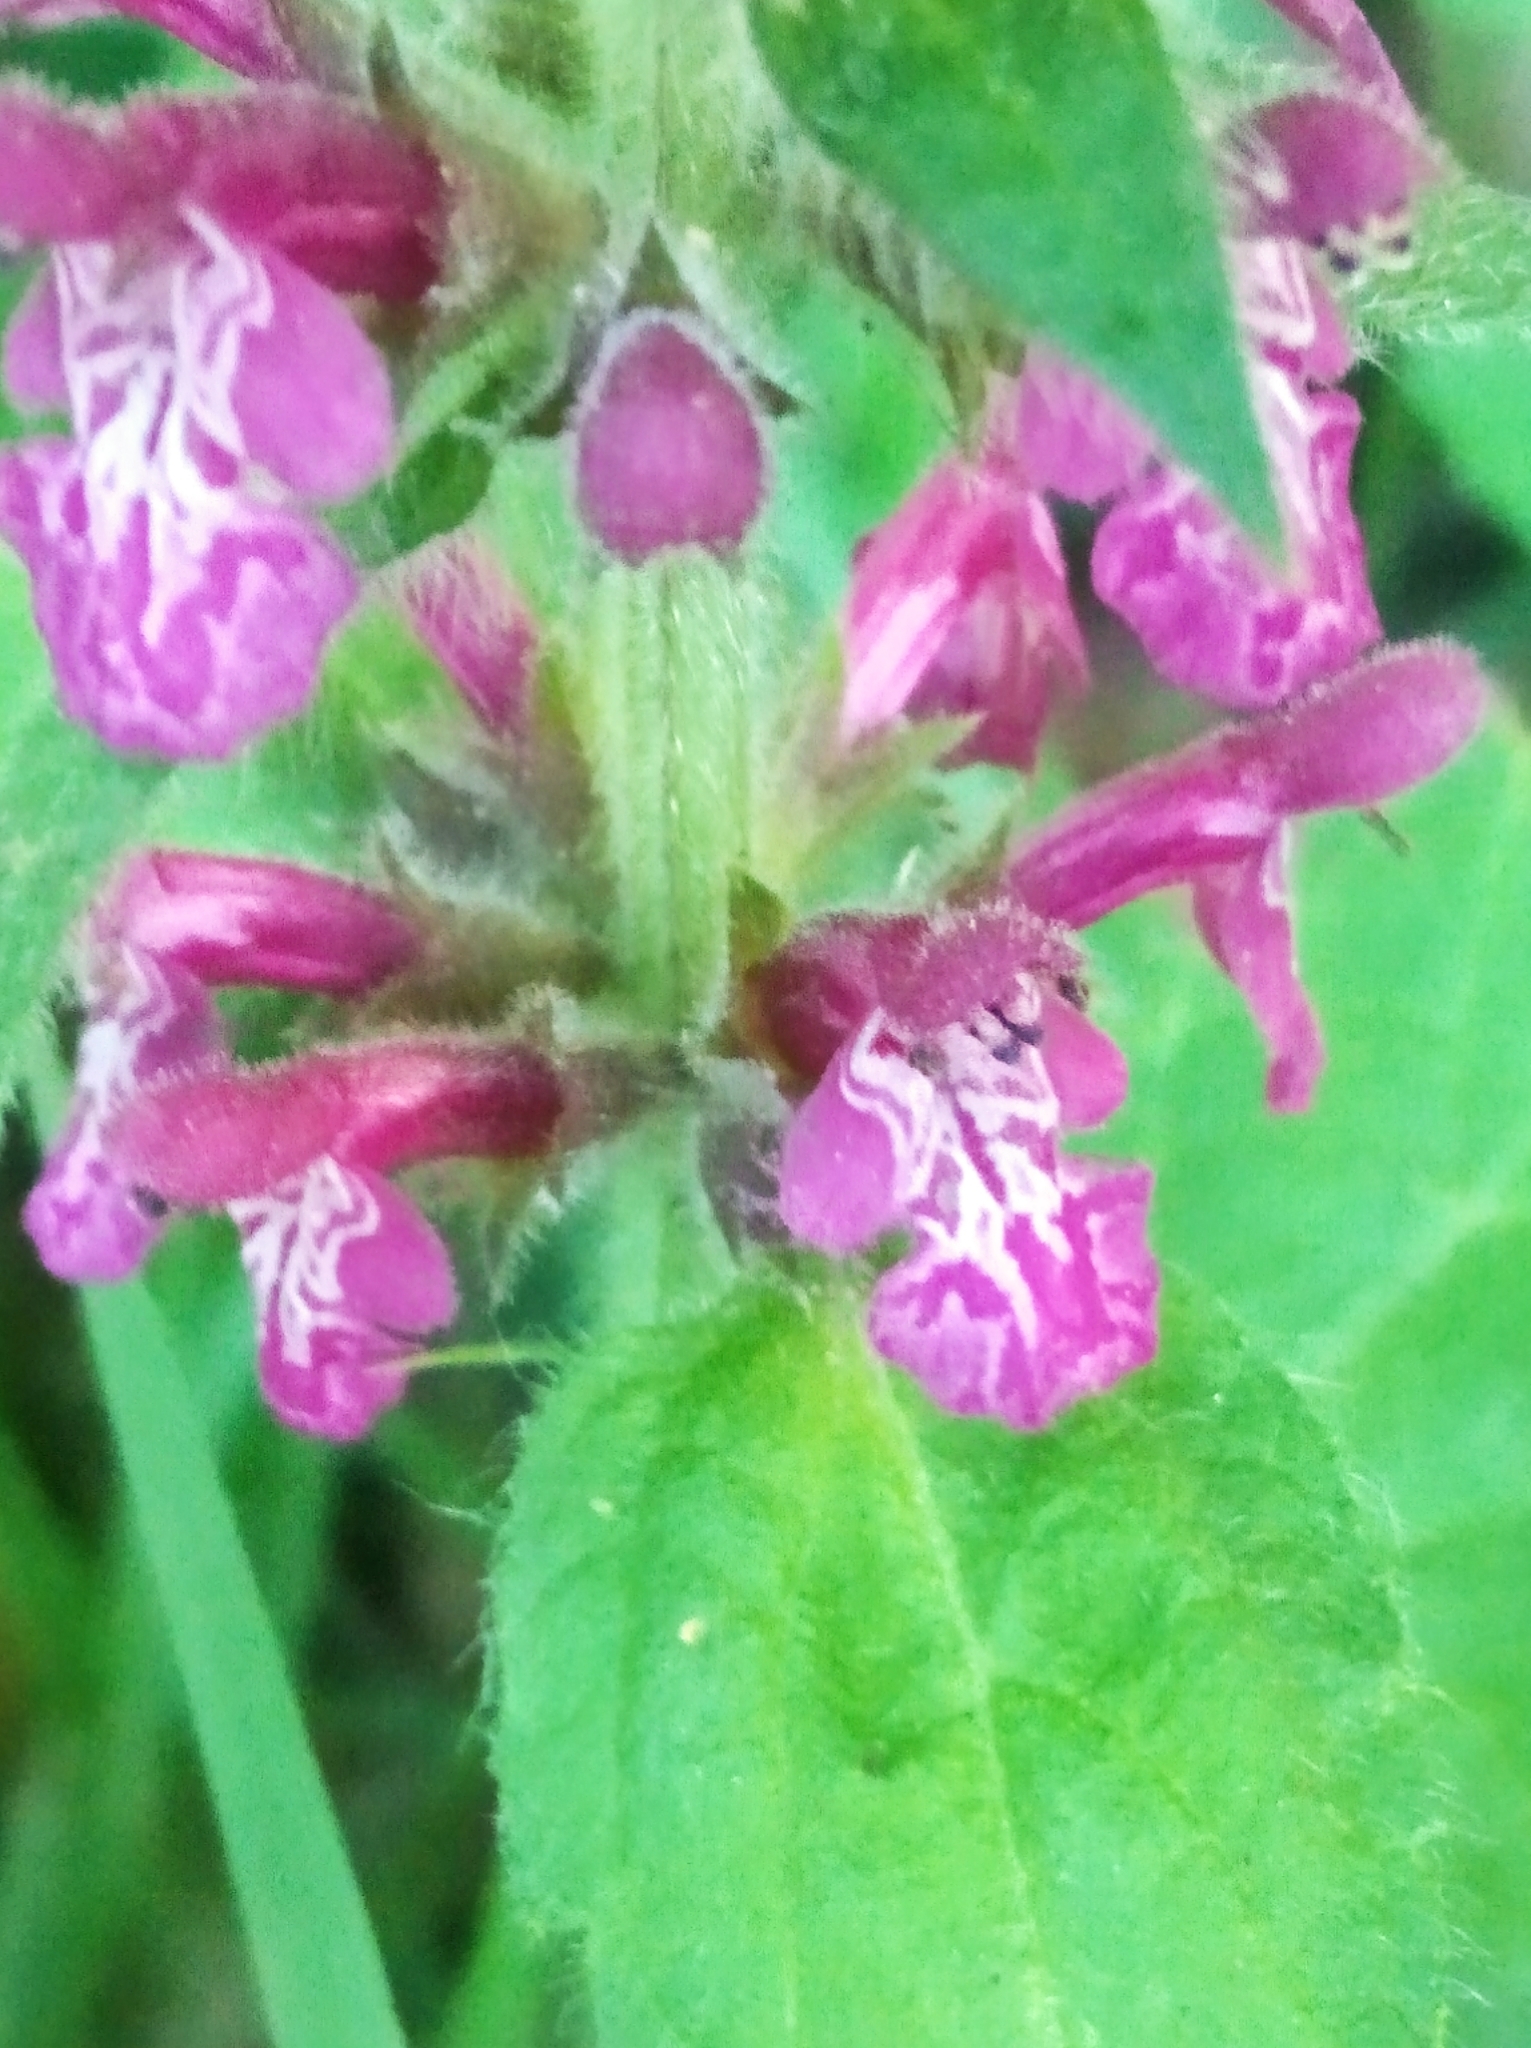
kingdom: Plantae
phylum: Tracheophyta
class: Magnoliopsida
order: Lamiales
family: Lamiaceae
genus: Stachys
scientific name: Stachys sylvatica
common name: Hedge woundwort
